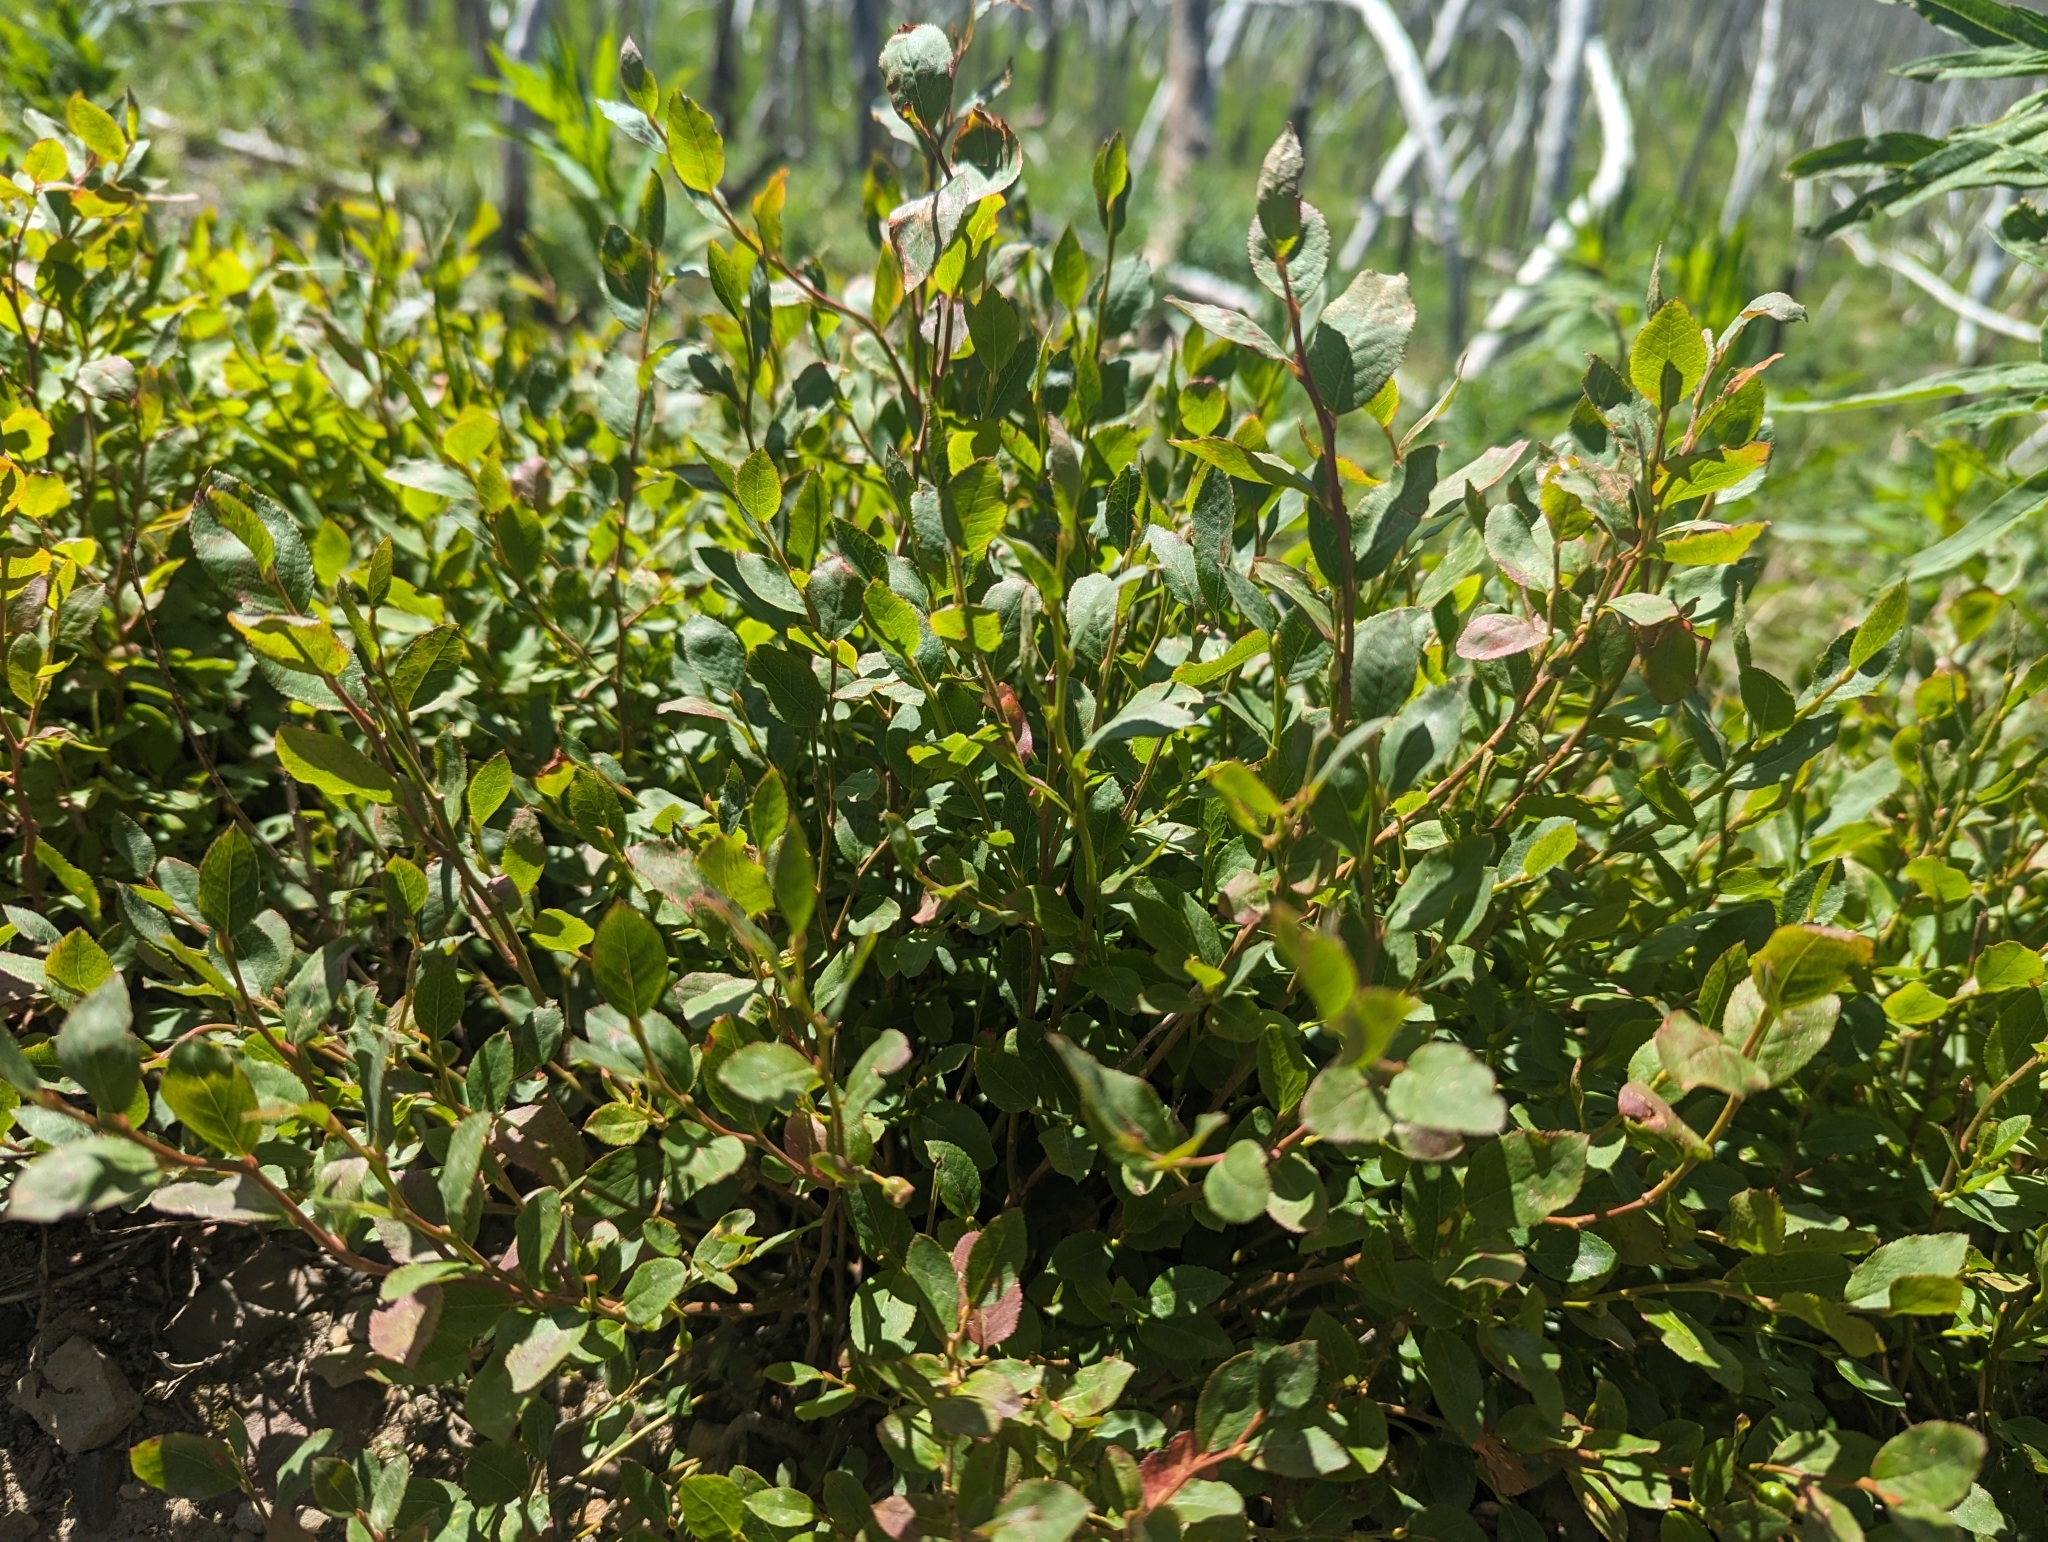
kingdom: Plantae
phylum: Tracheophyta
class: Magnoliopsida
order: Ericales
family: Ericaceae
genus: Vaccinium
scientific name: Vaccinium membranaceum
